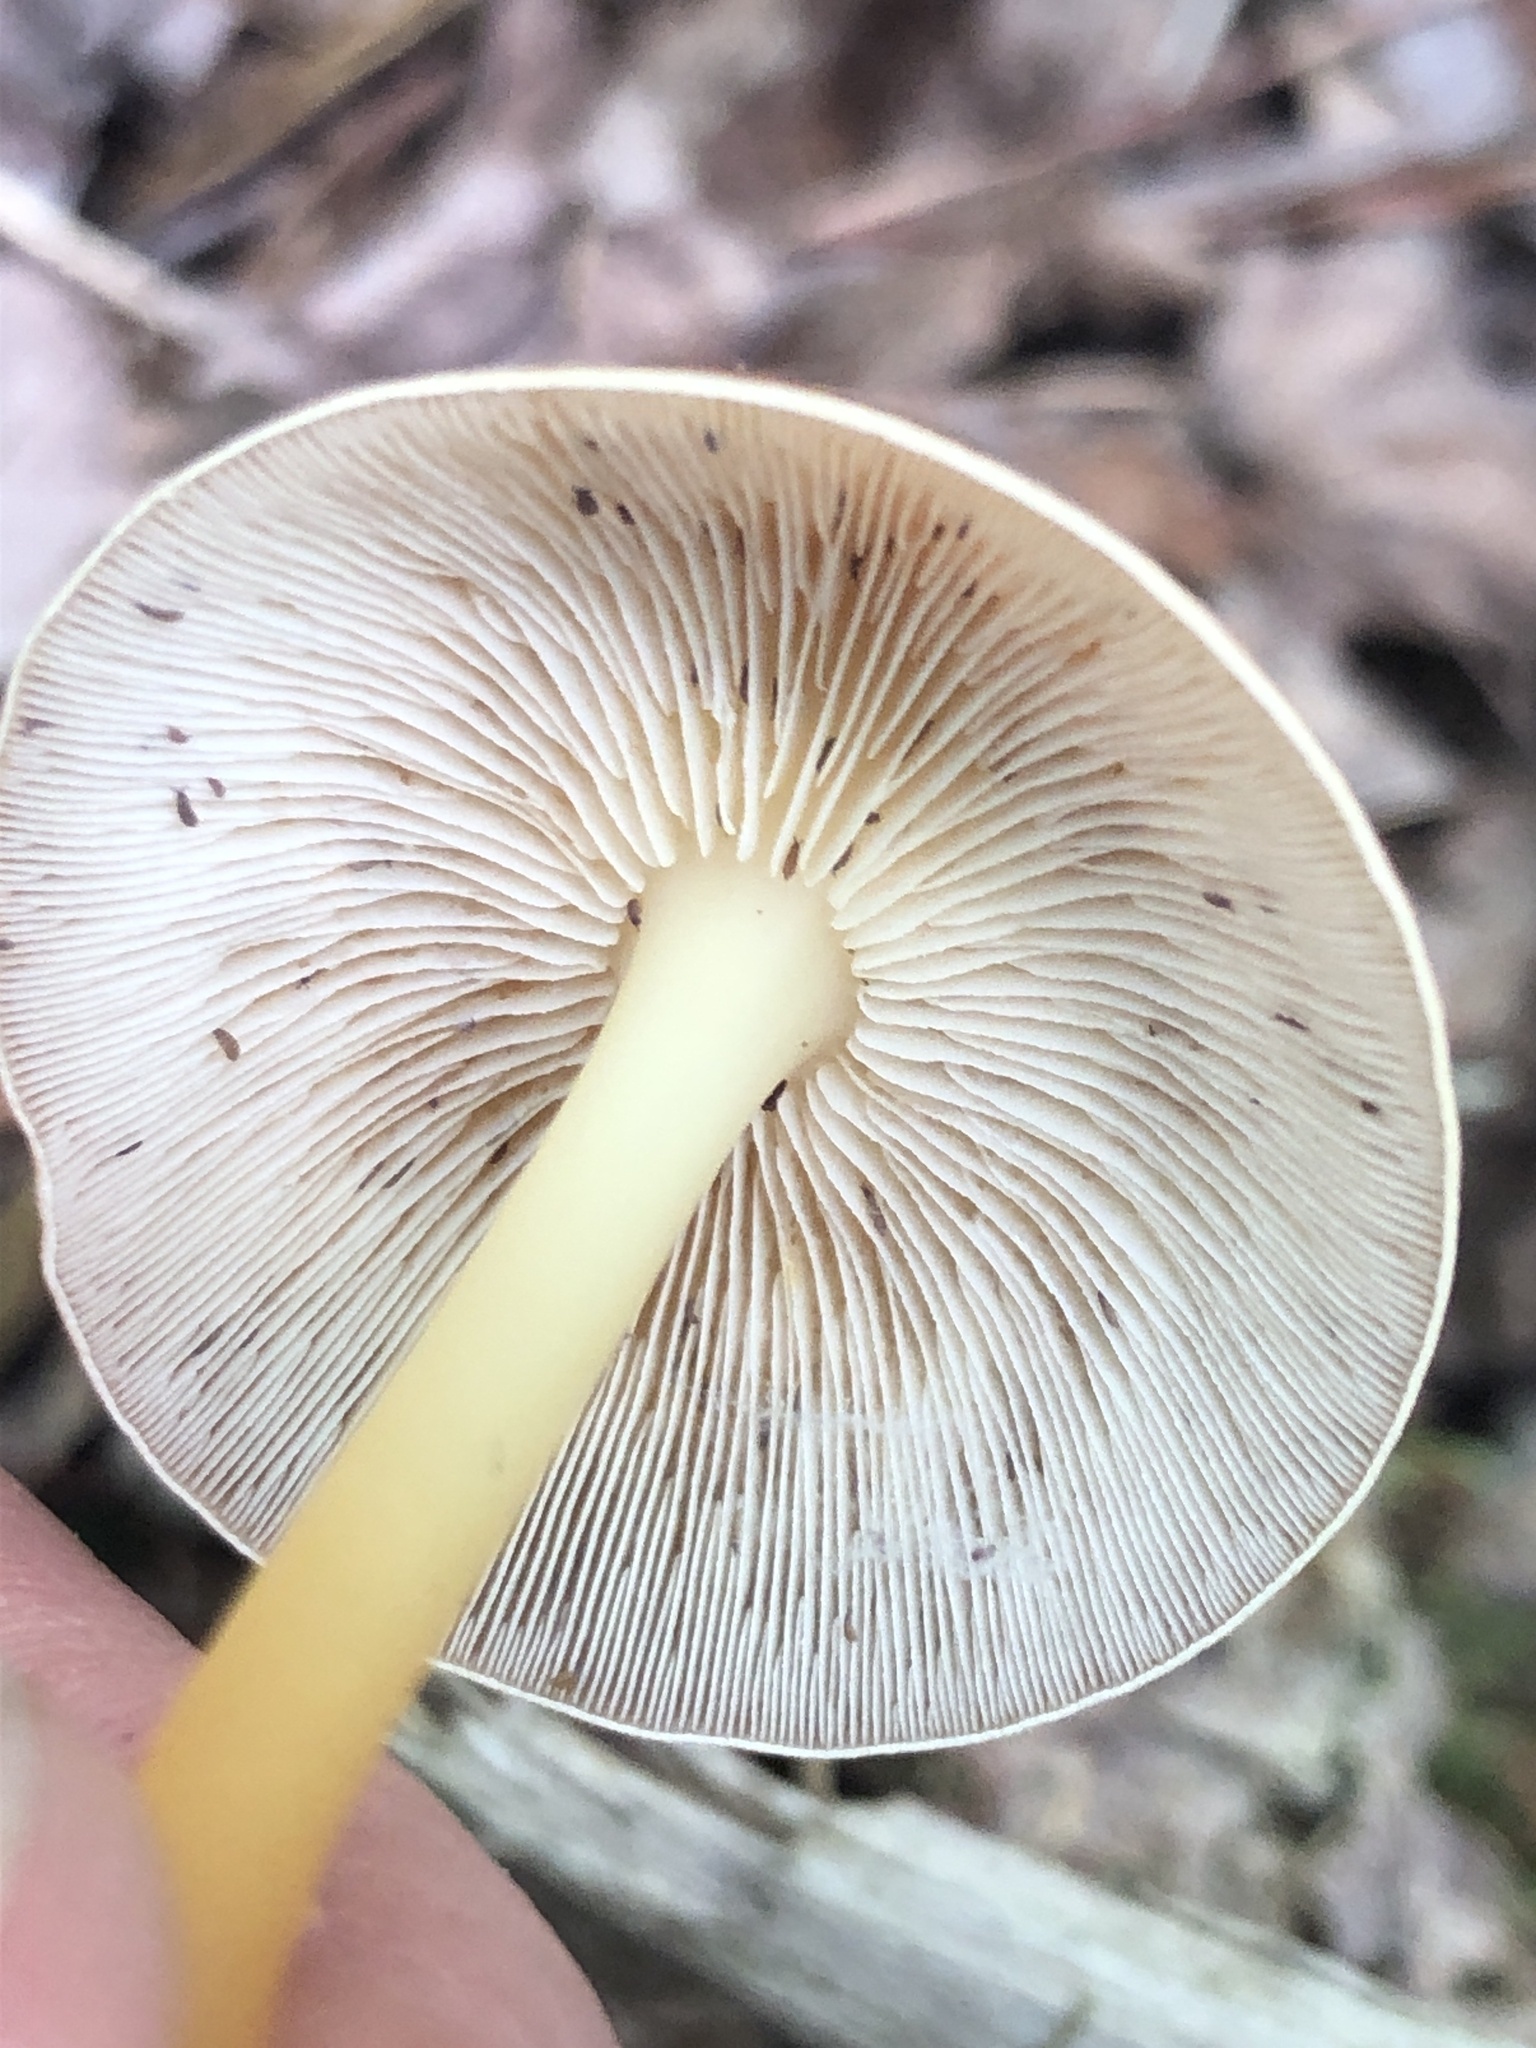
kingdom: Fungi
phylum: Basidiomycota
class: Agaricomycetes
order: Agaricales
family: Omphalotaceae
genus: Gymnopus
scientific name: Gymnopus dryophilus
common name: Penny top
